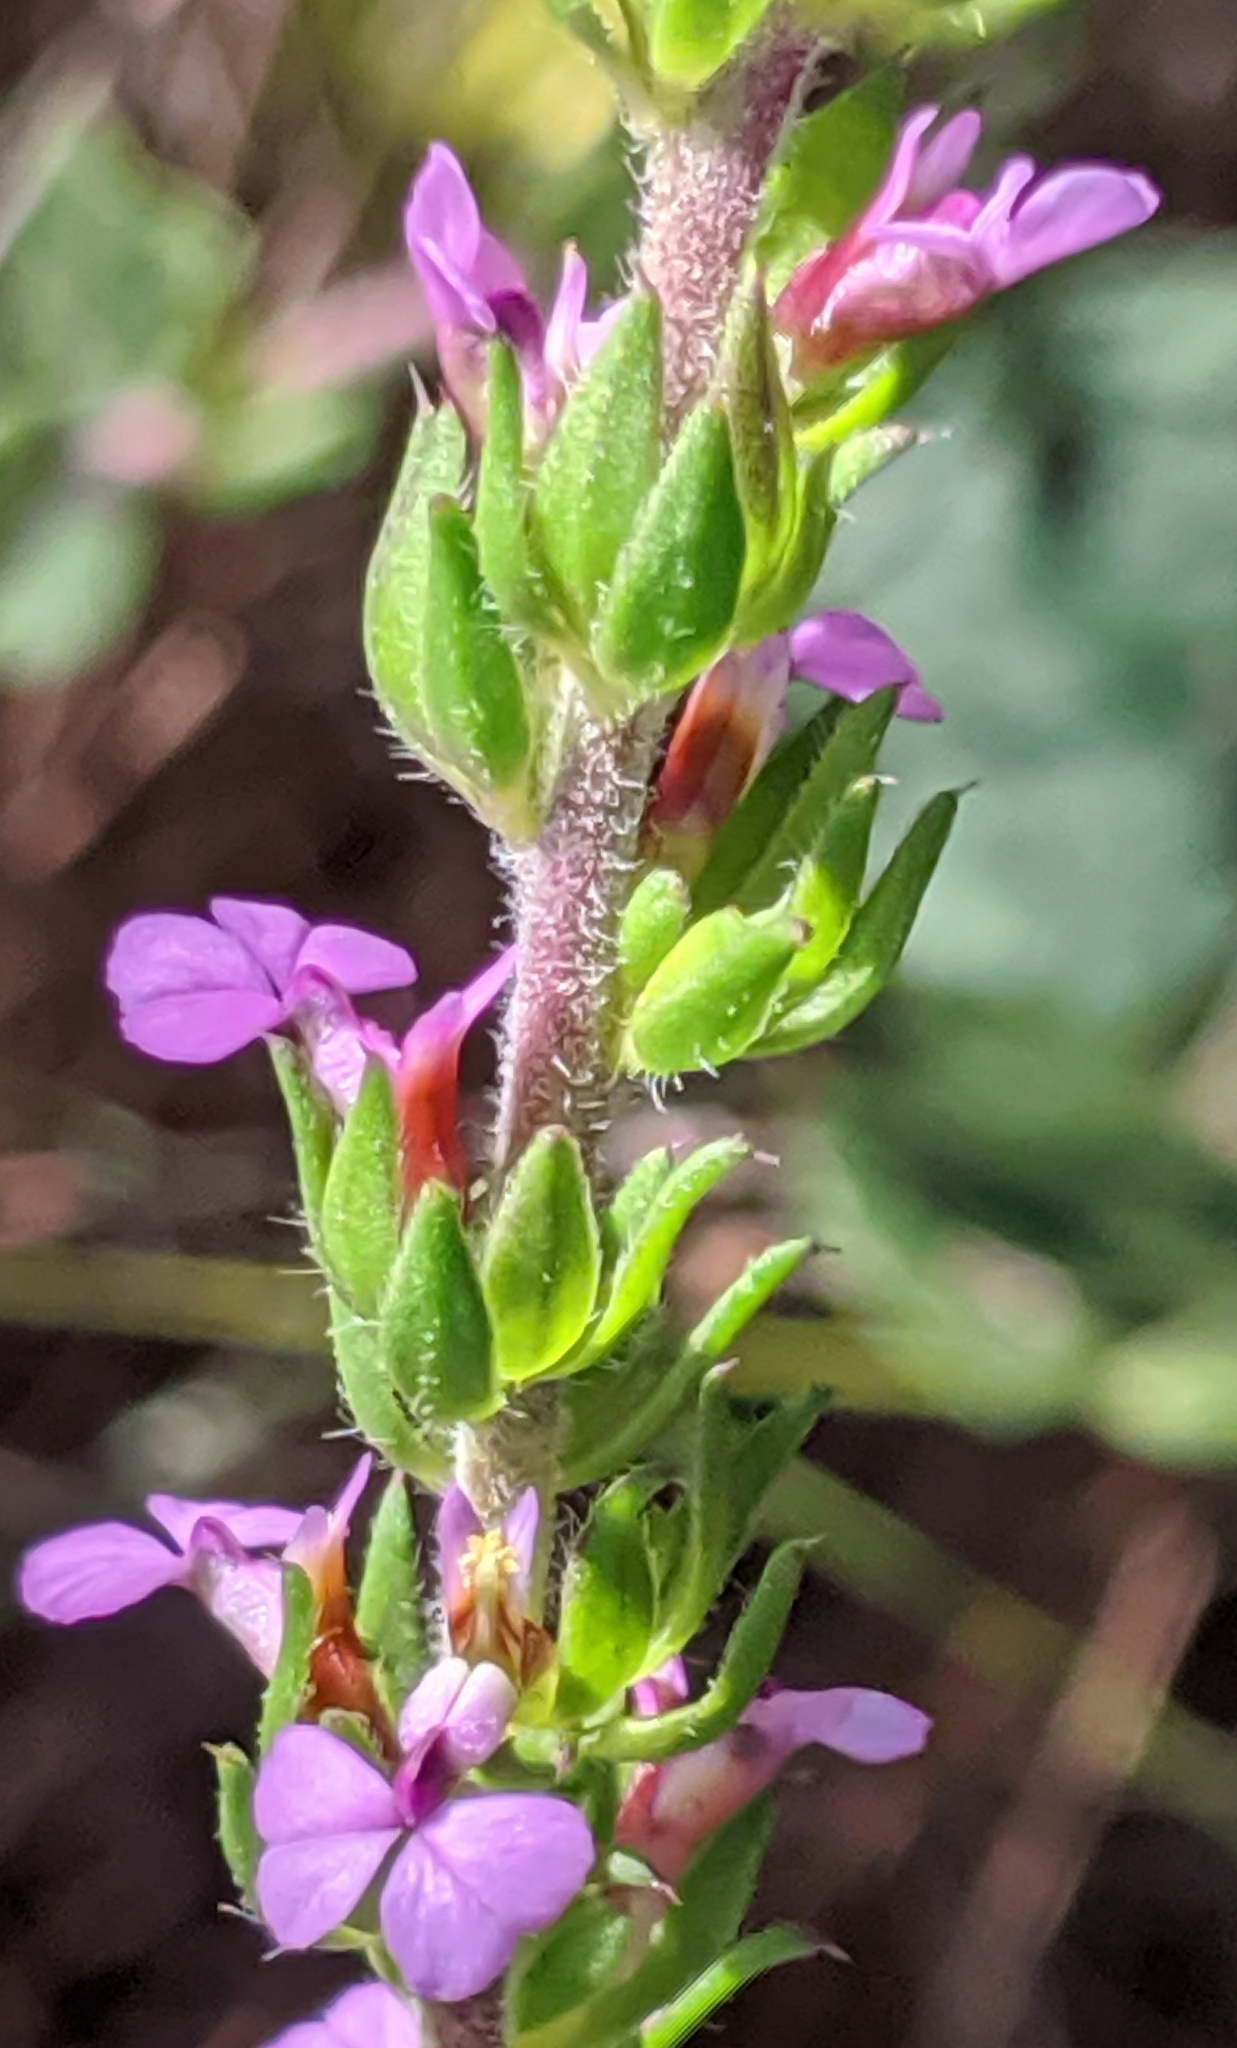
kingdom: Plantae
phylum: Tracheophyta
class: Magnoliopsida
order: Fabales
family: Polygalaceae
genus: Muraltia
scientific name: Muraltia squarrosa
